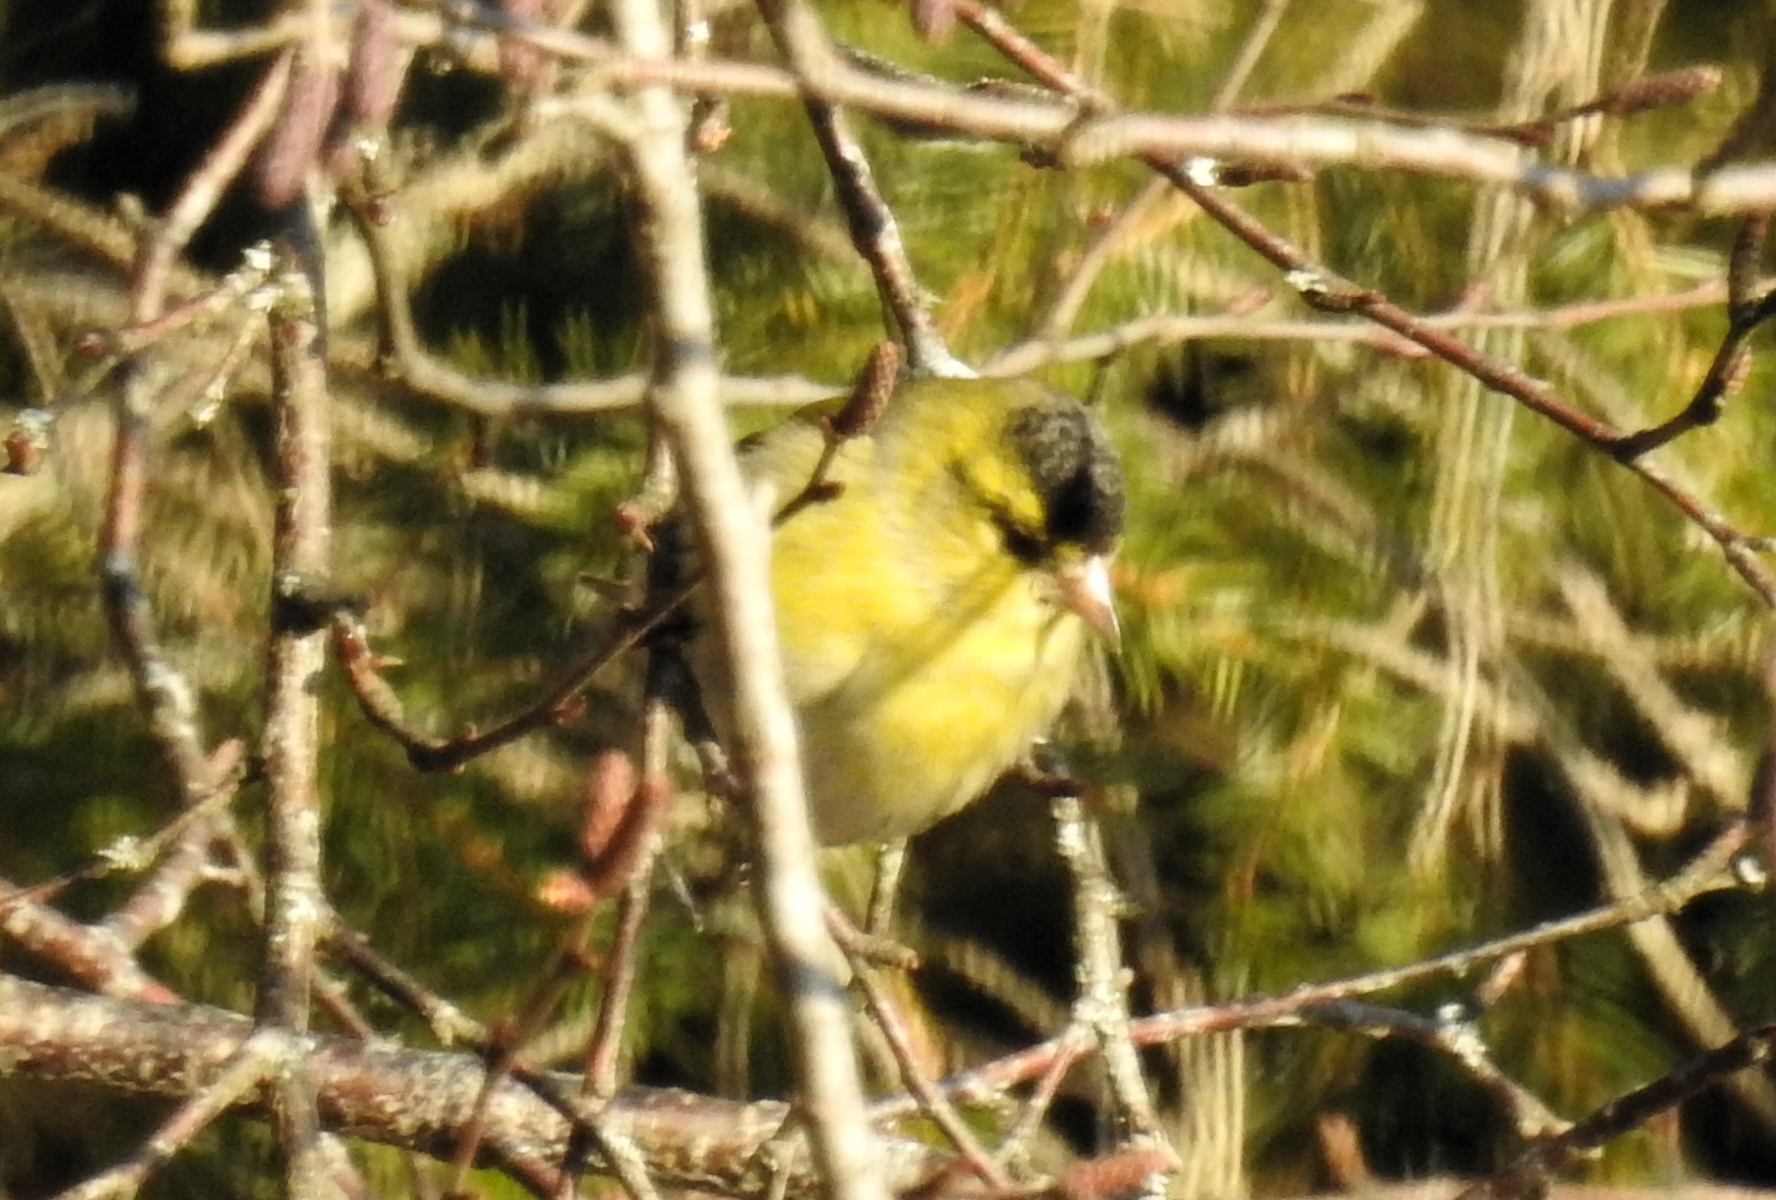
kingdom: Animalia
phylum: Chordata
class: Aves
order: Passeriformes
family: Fringillidae
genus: Spinus
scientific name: Spinus spinus
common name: Eurasian siskin
